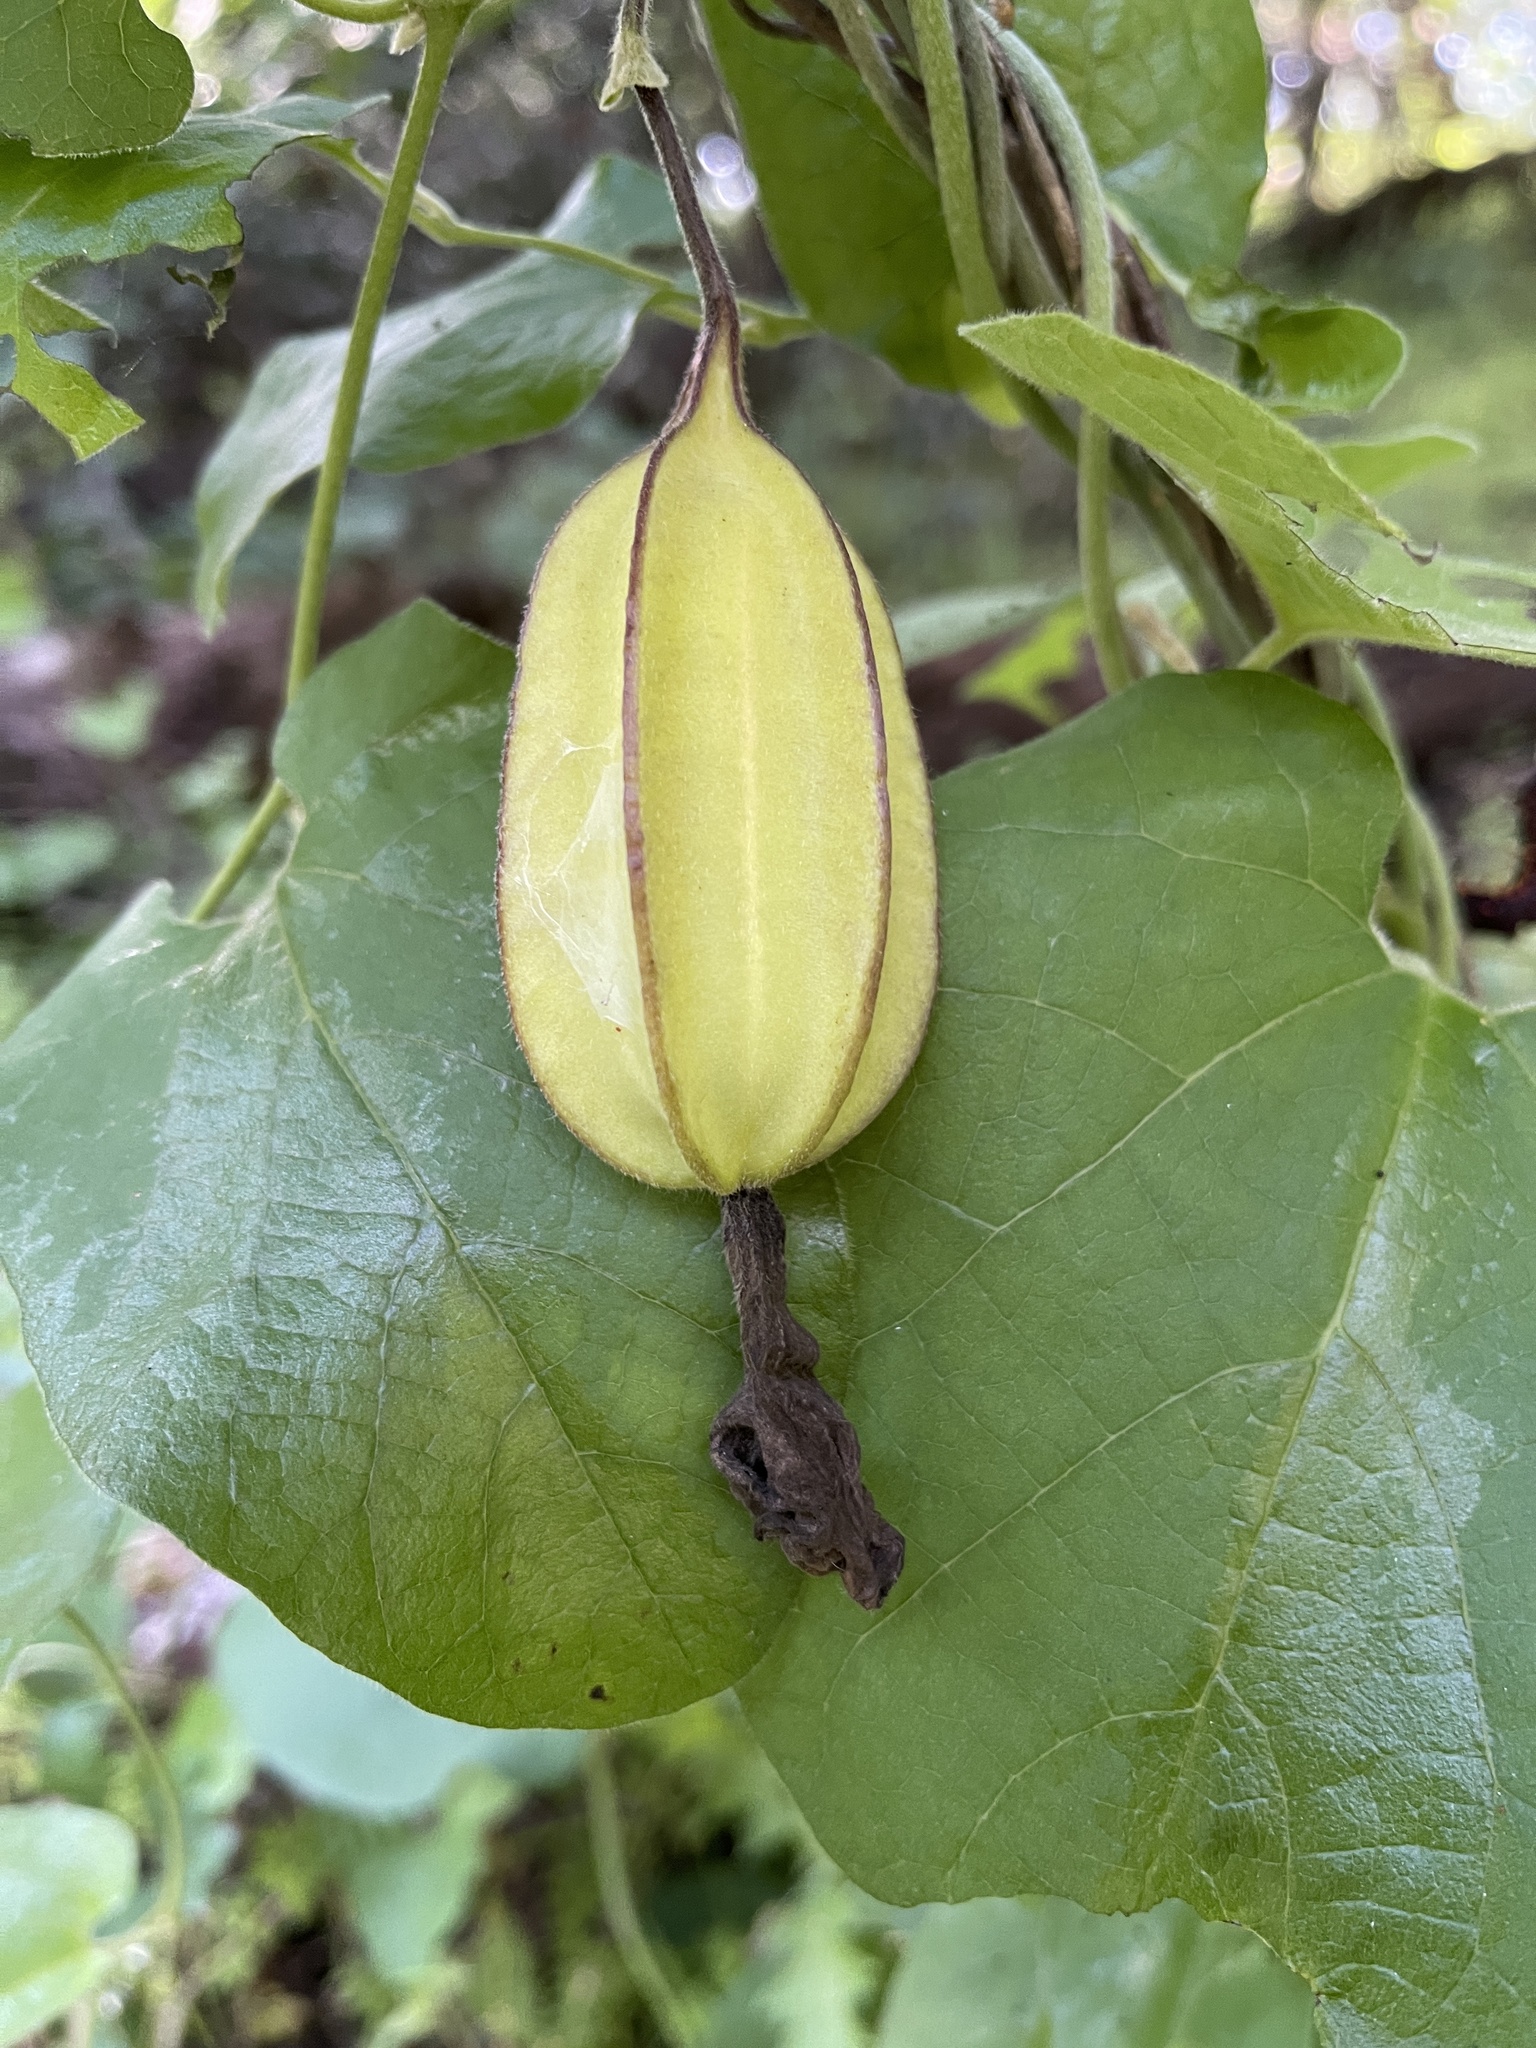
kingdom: Plantae
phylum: Tracheophyta
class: Magnoliopsida
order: Piperales
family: Aristolochiaceae
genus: Isotrema
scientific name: Isotrema californicum
